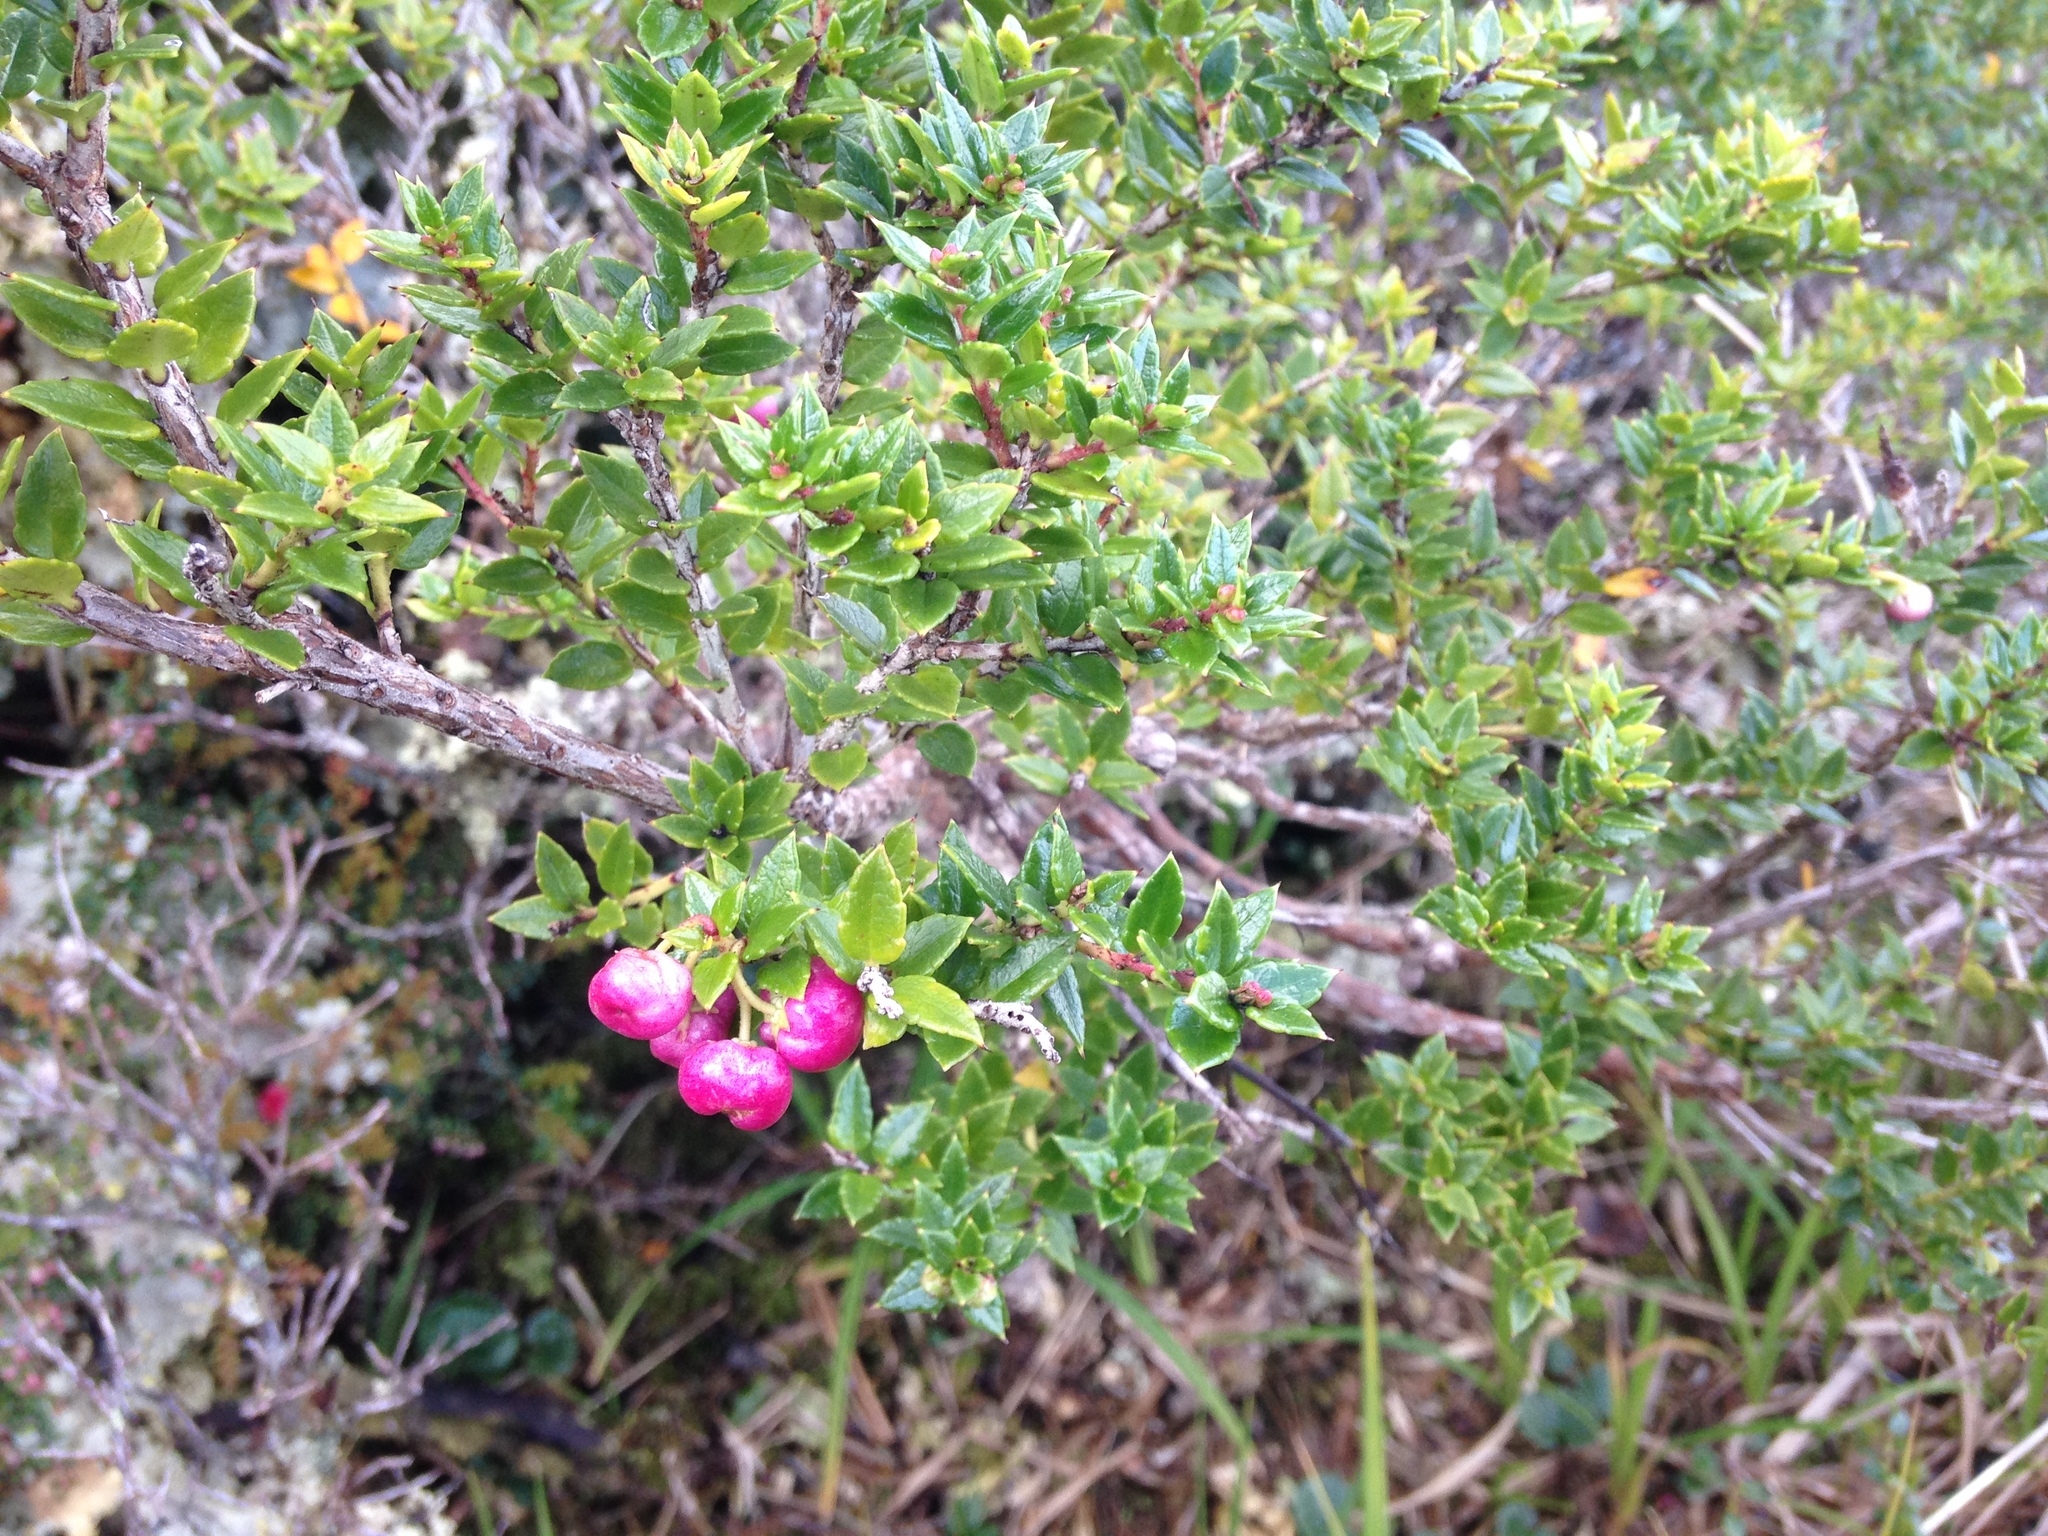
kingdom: Plantae
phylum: Tracheophyta
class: Magnoliopsida
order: Ericales
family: Ericaceae
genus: Gaultheria
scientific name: Gaultheria mucronata
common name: Prickly heath
